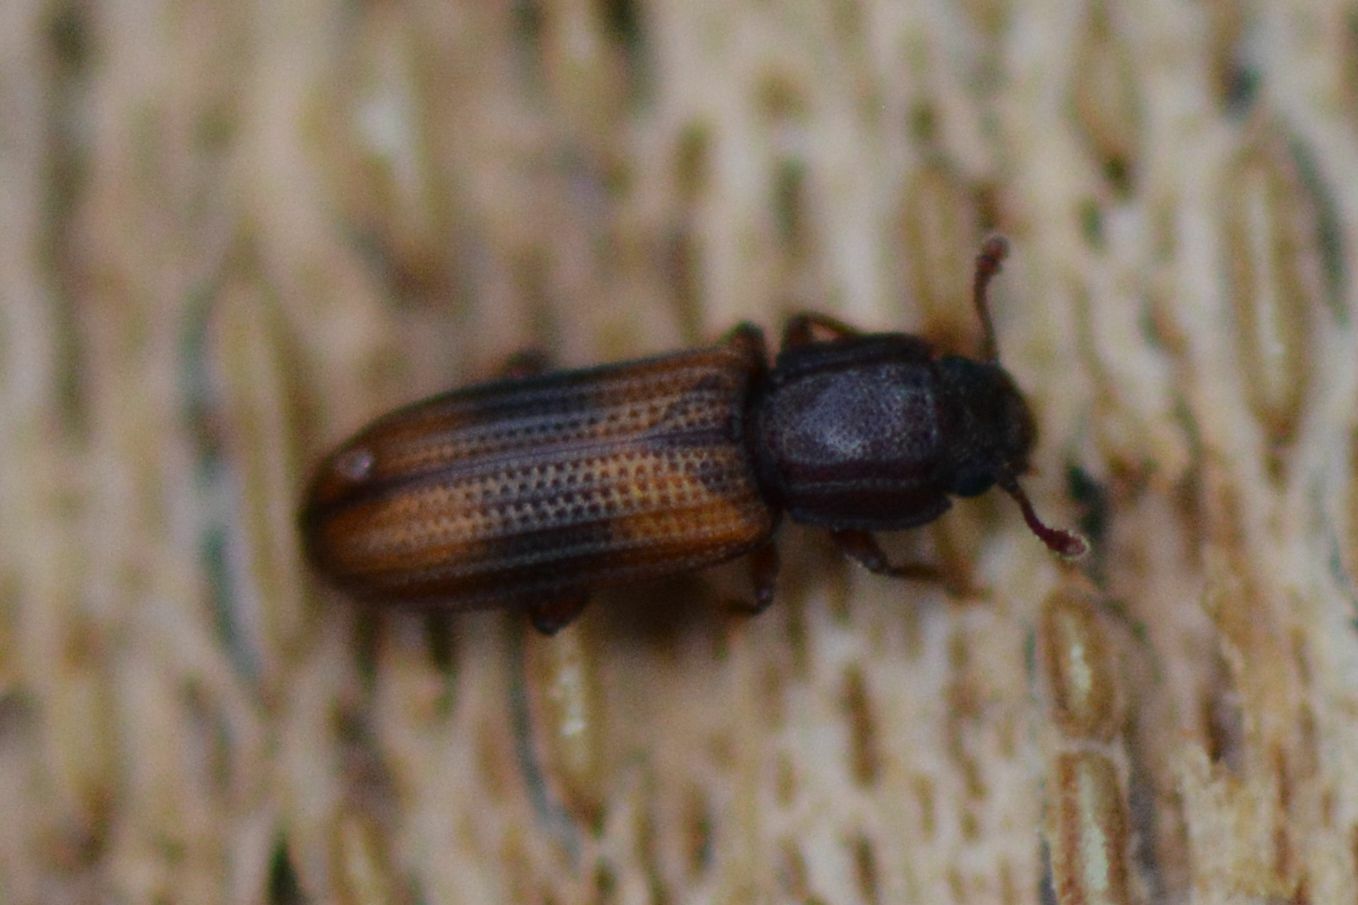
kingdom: Animalia
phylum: Arthropoda
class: Insecta
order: Coleoptera
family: Zopheridae
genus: Bitoma
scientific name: Bitoma crenata
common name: Bark beetle
